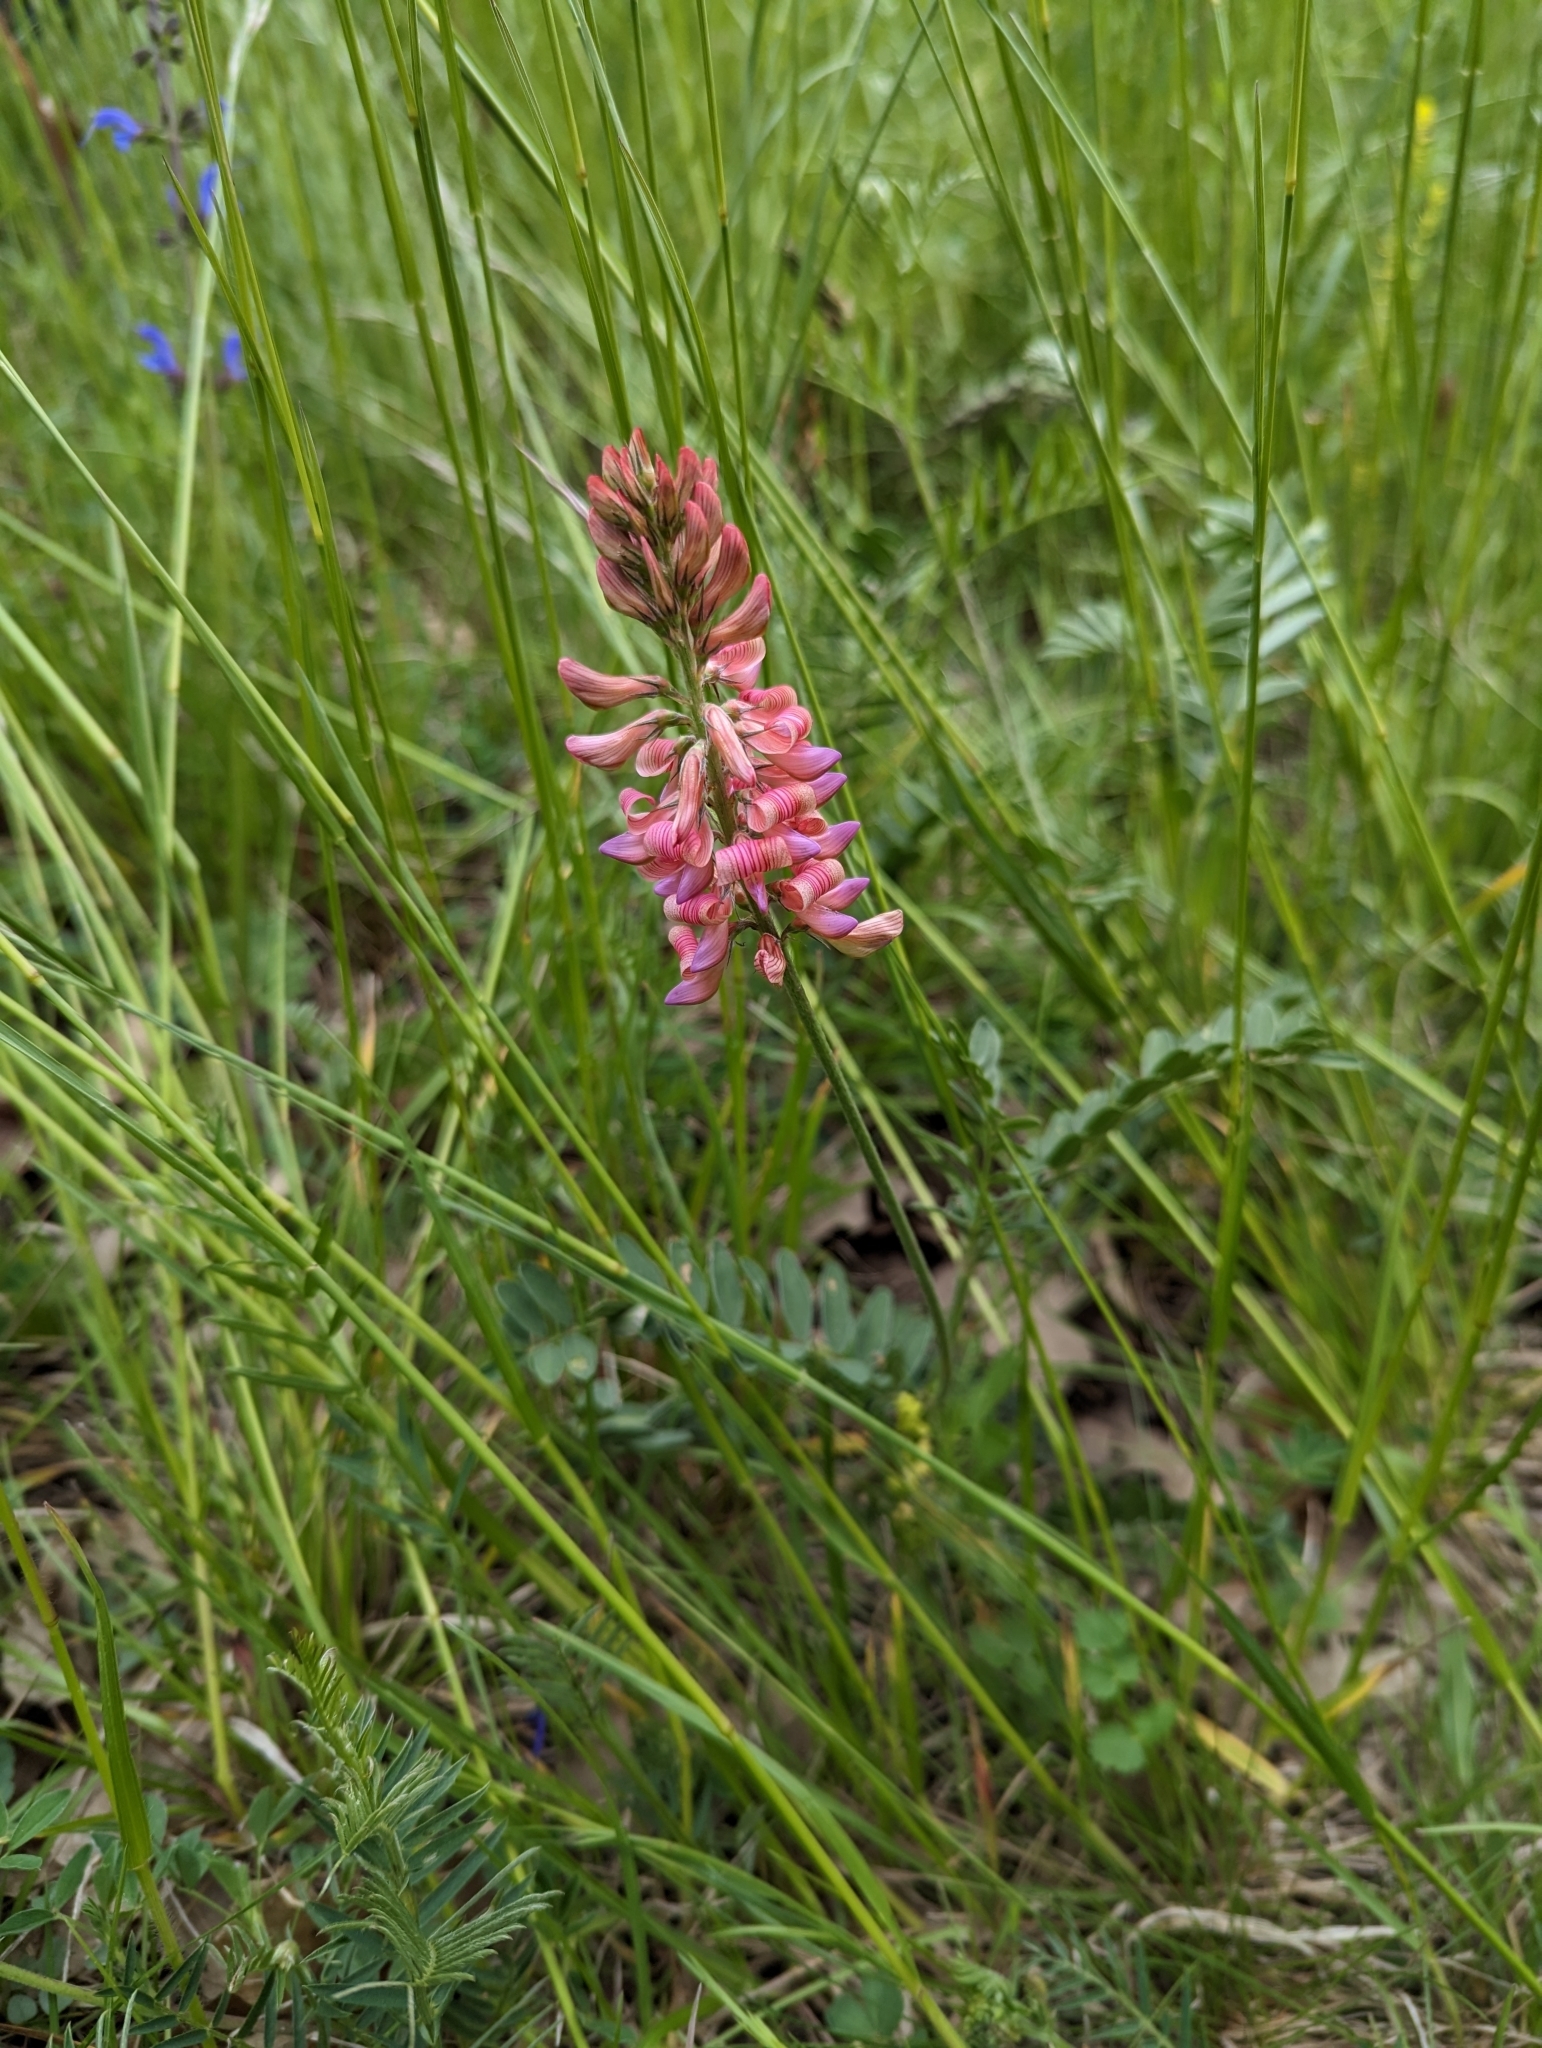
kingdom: Plantae
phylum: Tracheophyta
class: Magnoliopsida
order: Fabales
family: Fabaceae
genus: Onobrychis
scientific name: Onobrychis viciifolia
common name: Sainfoin
